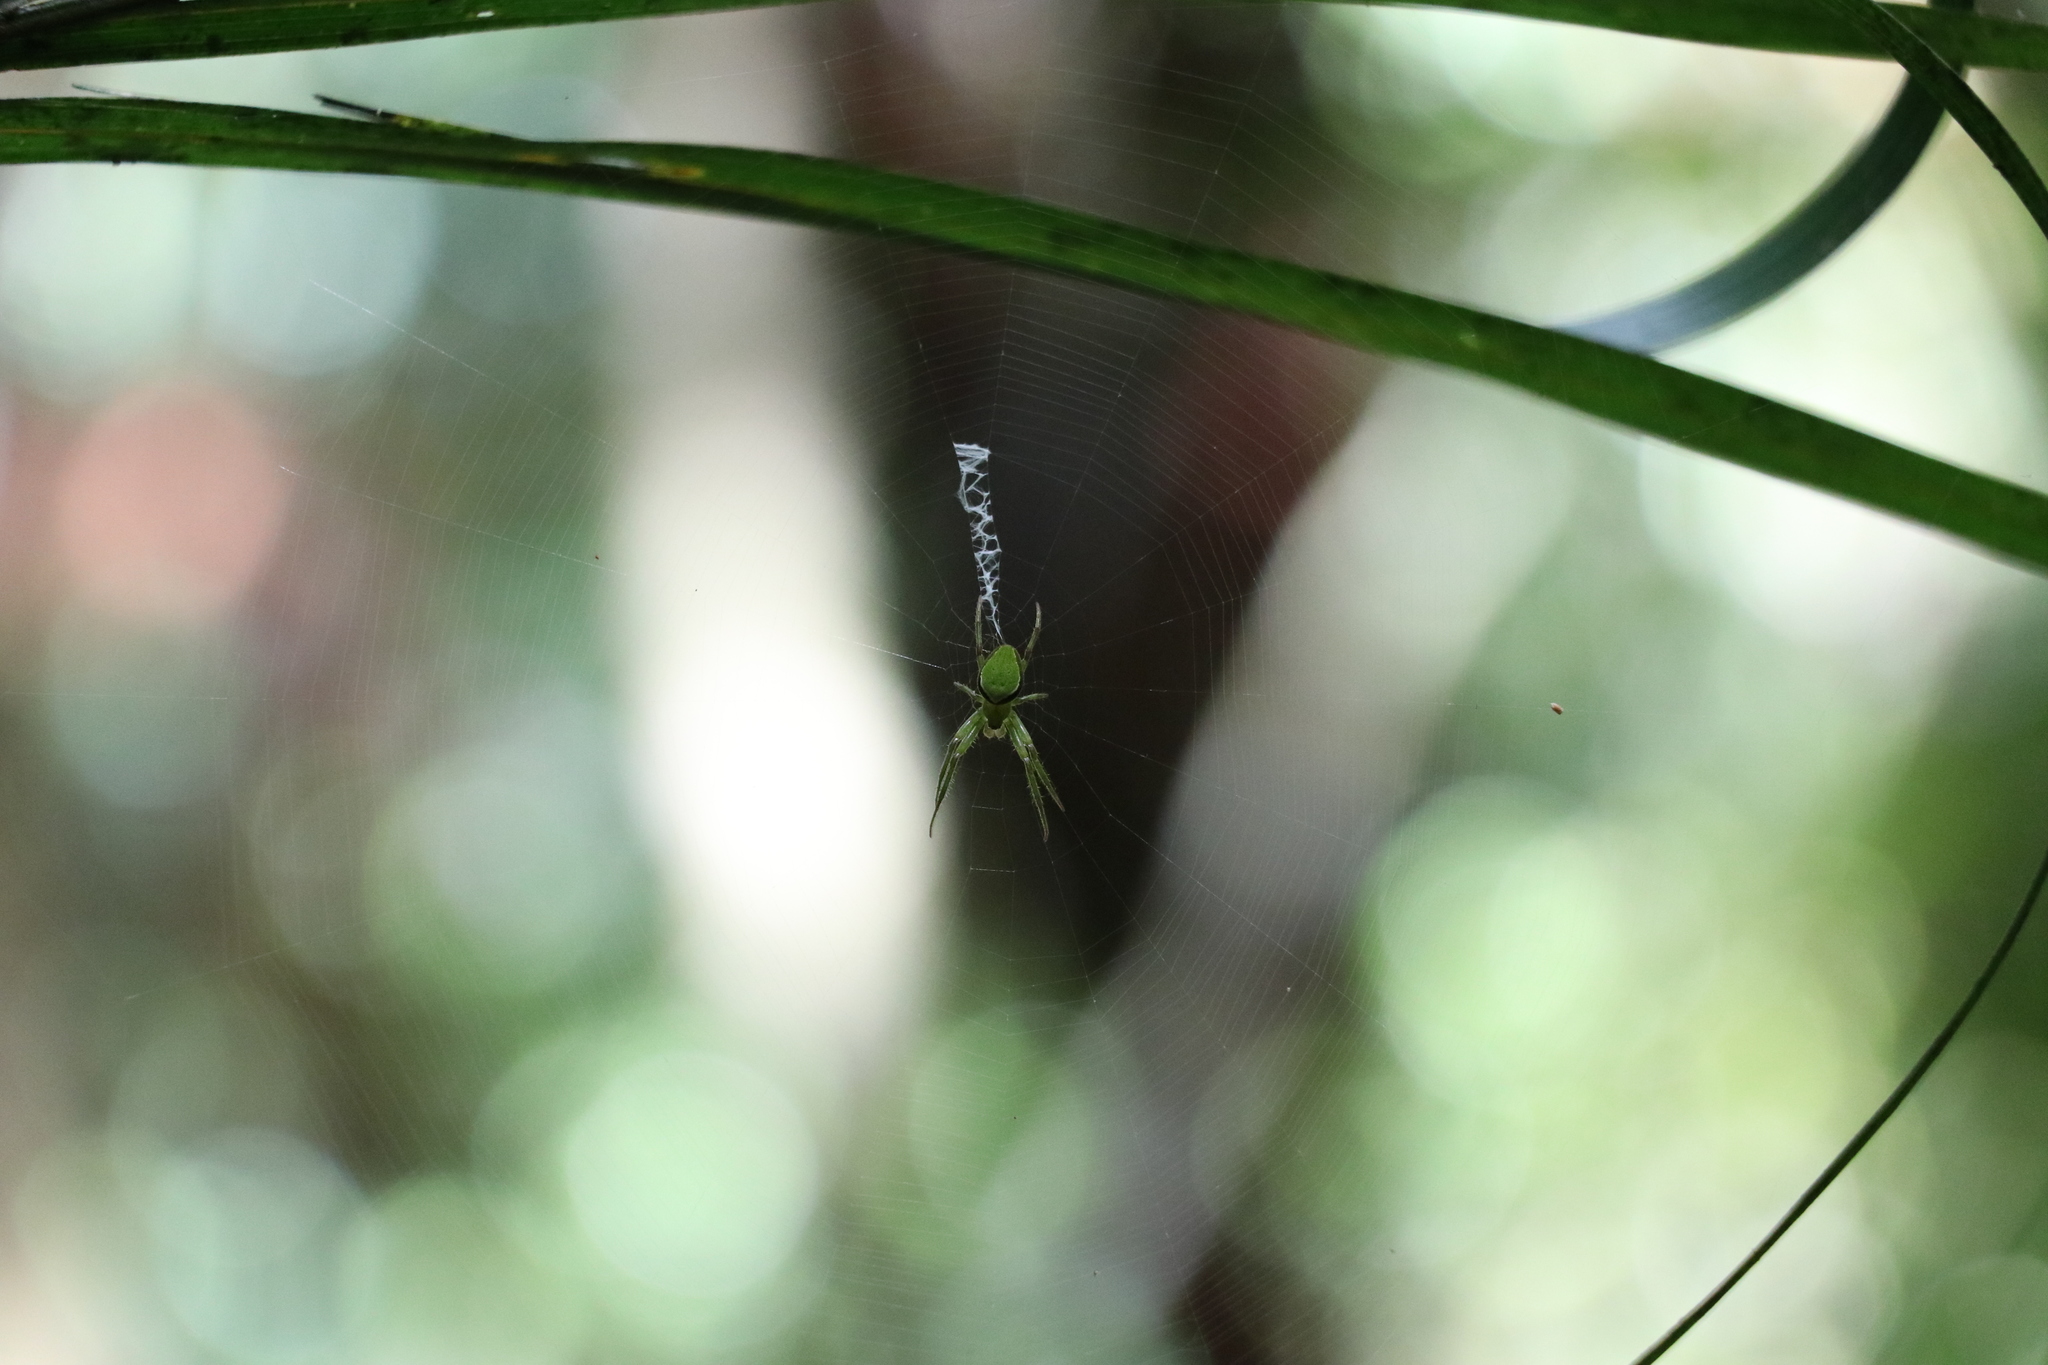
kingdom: Animalia
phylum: Arthropoda
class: Arachnida
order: Araneae
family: Araneidae
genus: Colaranea
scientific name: Colaranea viriditas
